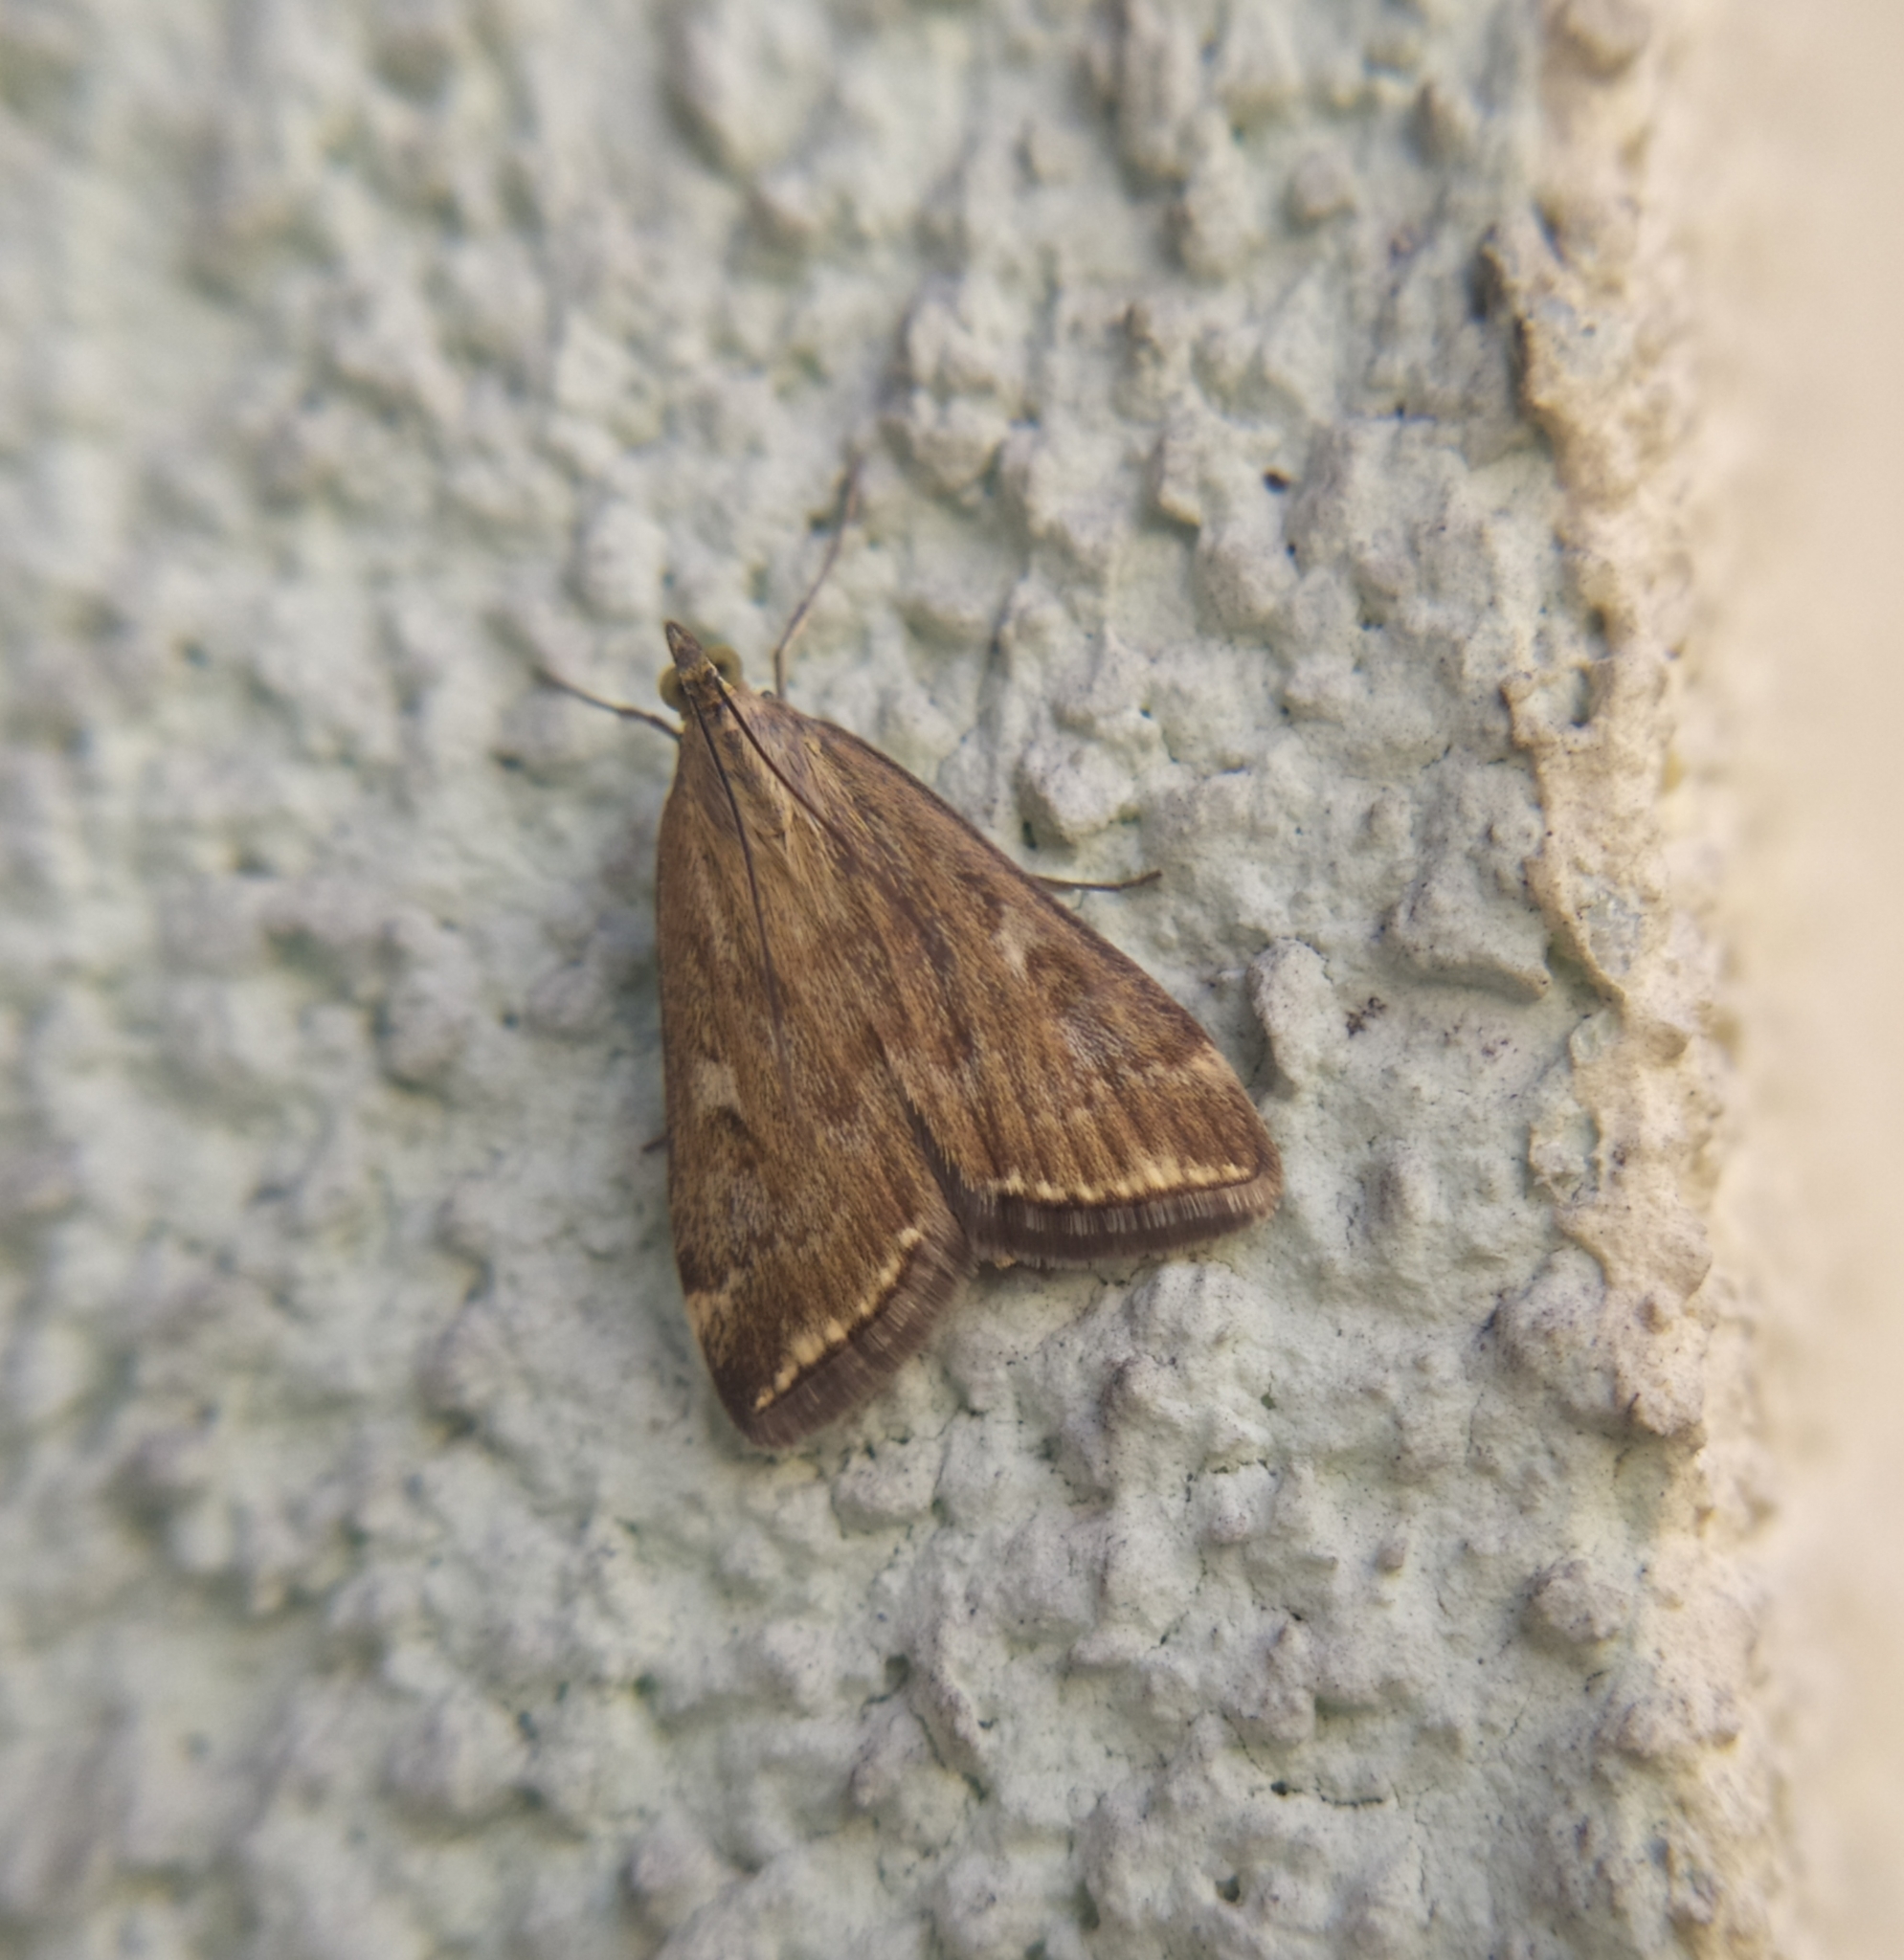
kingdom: Animalia
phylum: Arthropoda
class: Insecta
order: Lepidoptera
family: Crambidae
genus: Loxostege
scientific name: Loxostege sticticalis
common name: Crambid moth
